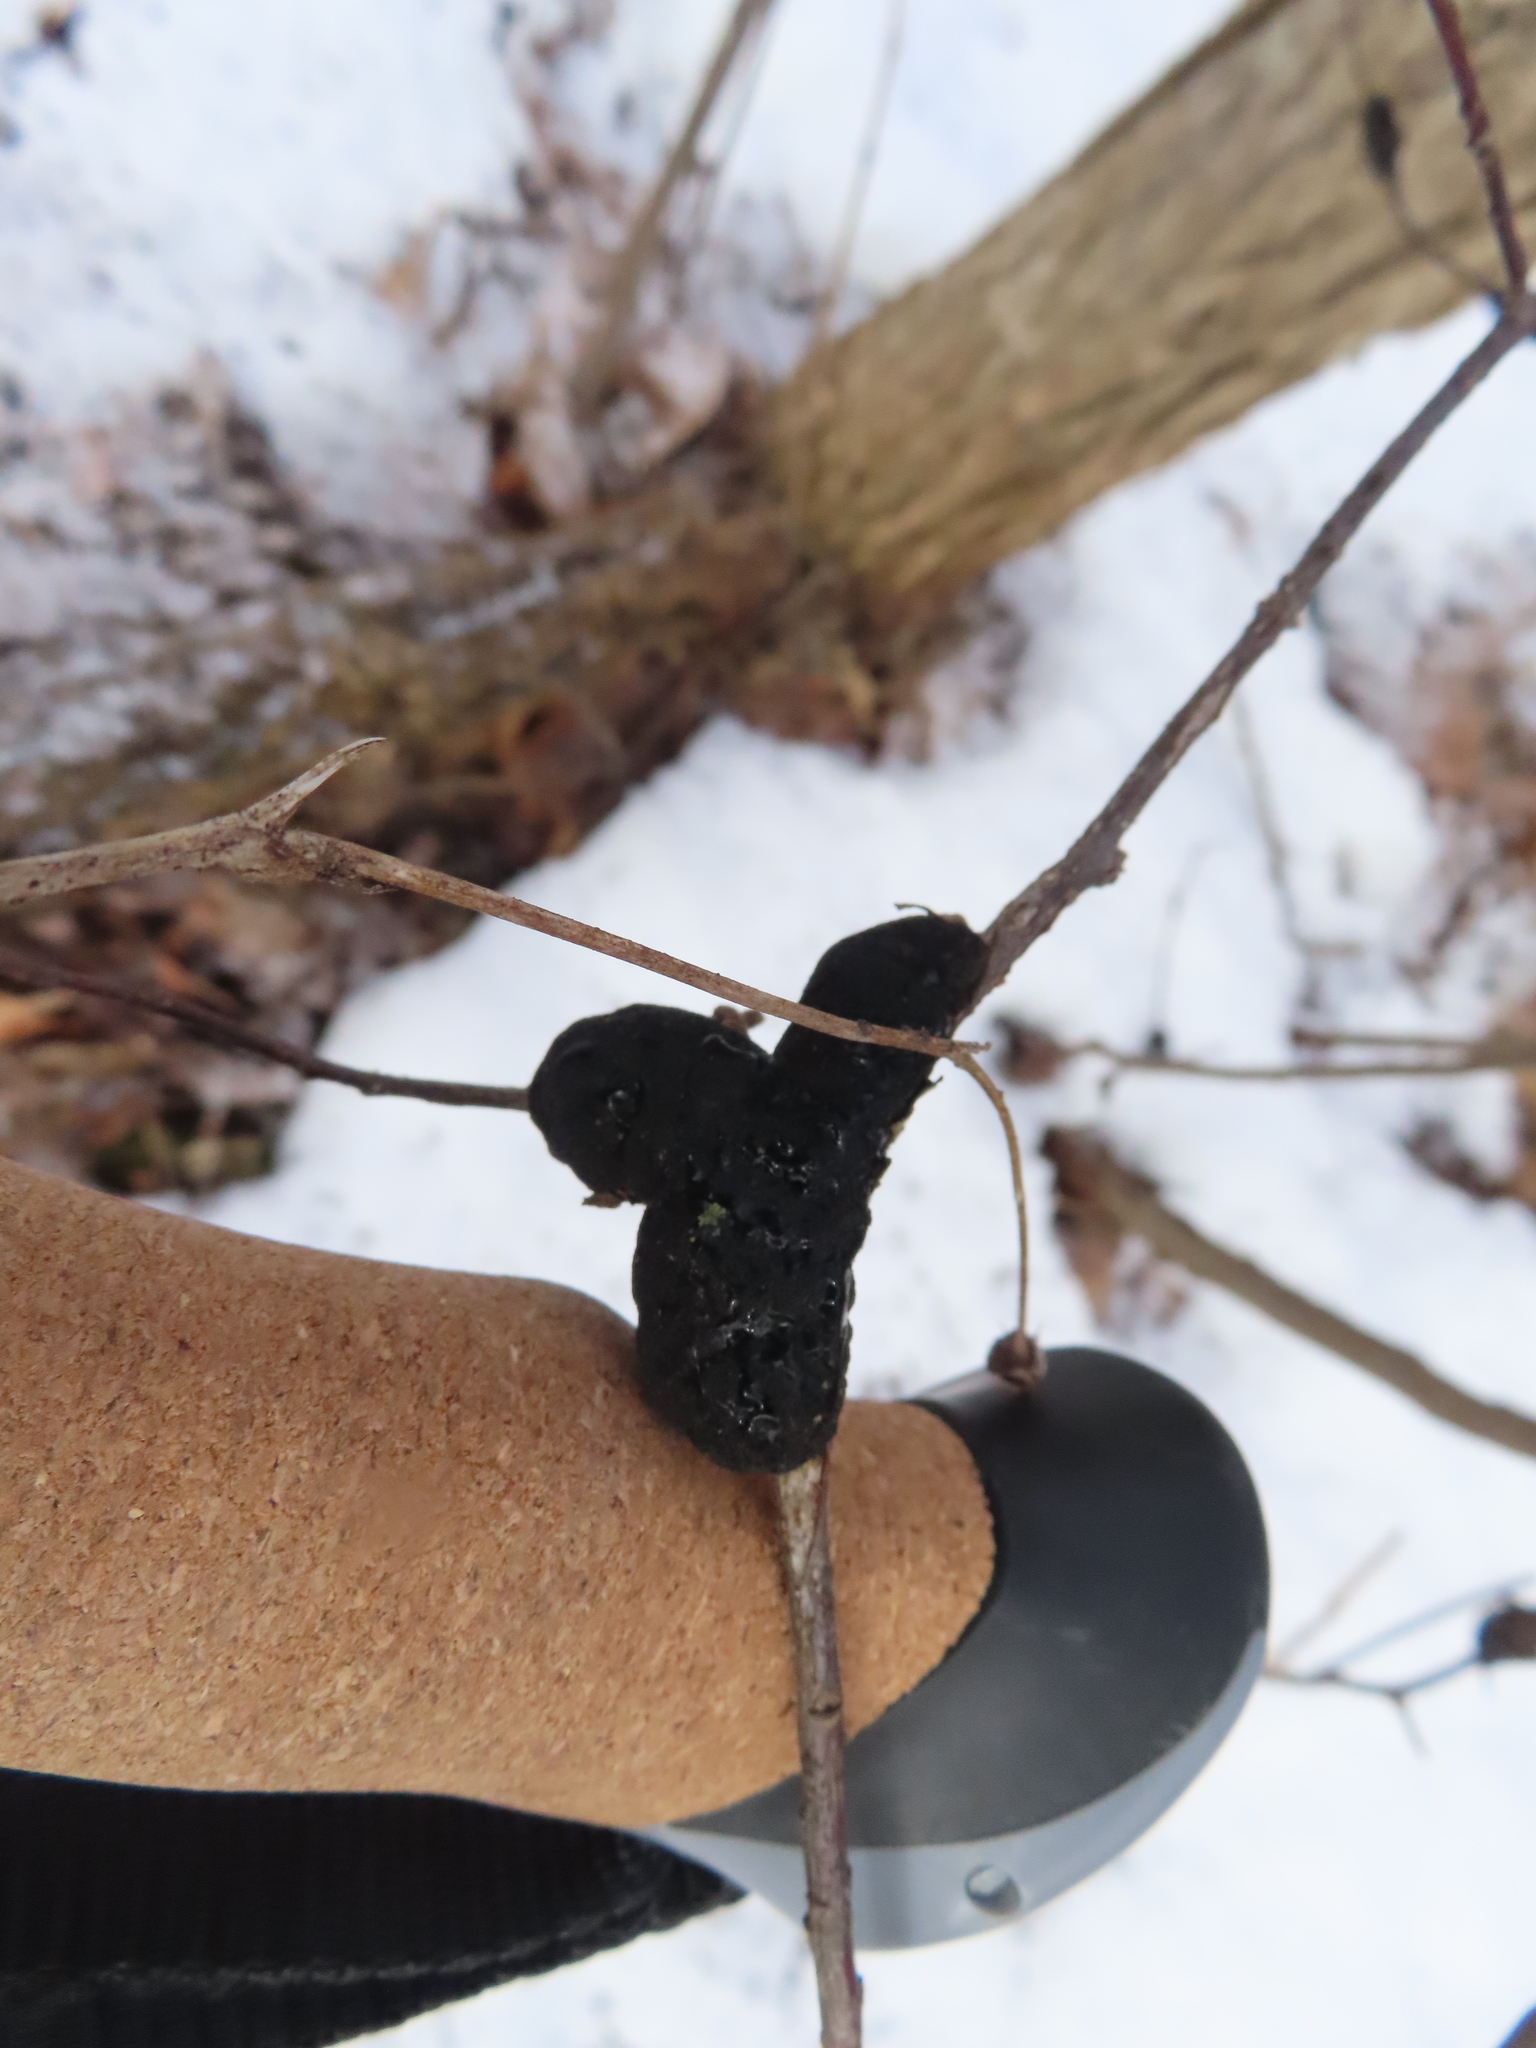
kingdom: Fungi
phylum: Ascomycota
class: Dothideomycetes
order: Venturiales
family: Venturiaceae
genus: Apiosporina
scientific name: Apiosporina morbosa
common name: Black knot
